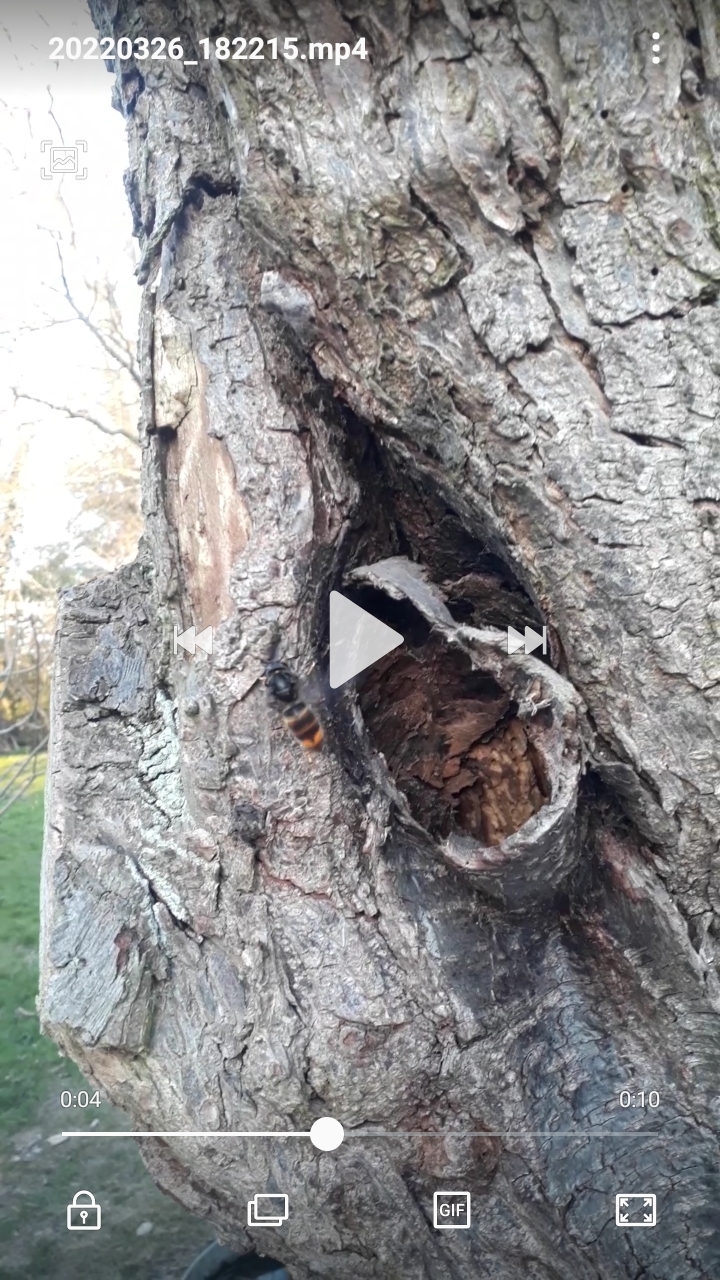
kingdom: Animalia
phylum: Arthropoda
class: Insecta
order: Hymenoptera
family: Vespidae
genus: Vespa
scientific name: Vespa velutina
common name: Asian hornet
